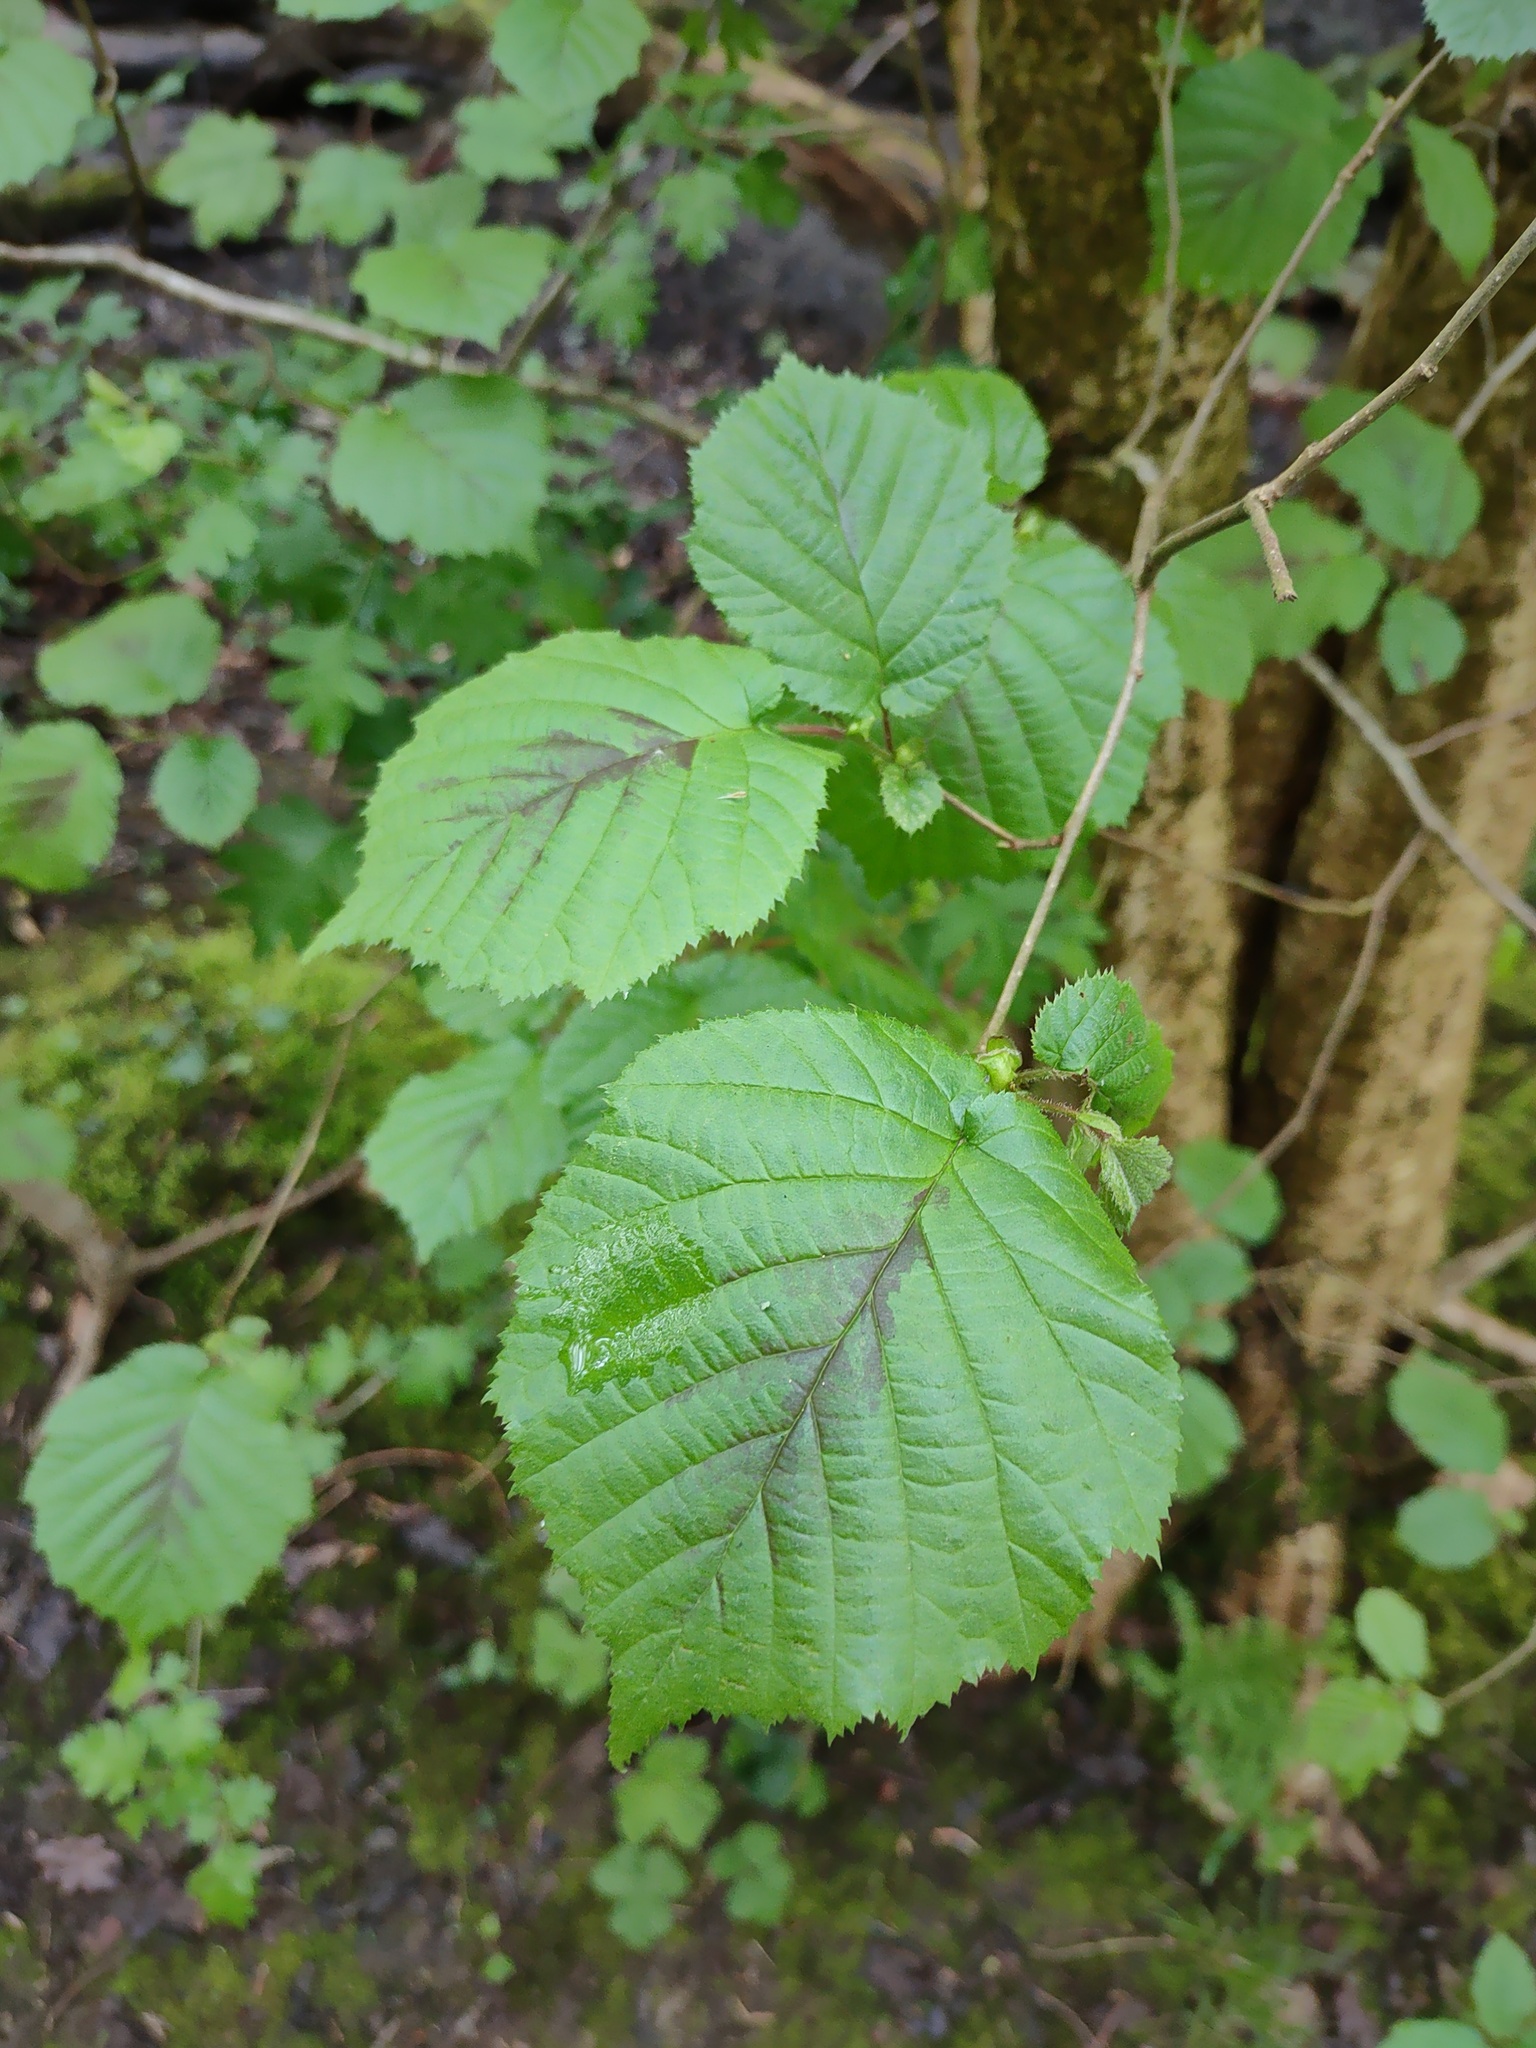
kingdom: Plantae
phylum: Tracheophyta
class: Magnoliopsida
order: Fagales
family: Betulaceae
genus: Corylus
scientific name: Corylus avellana
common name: European hazel
